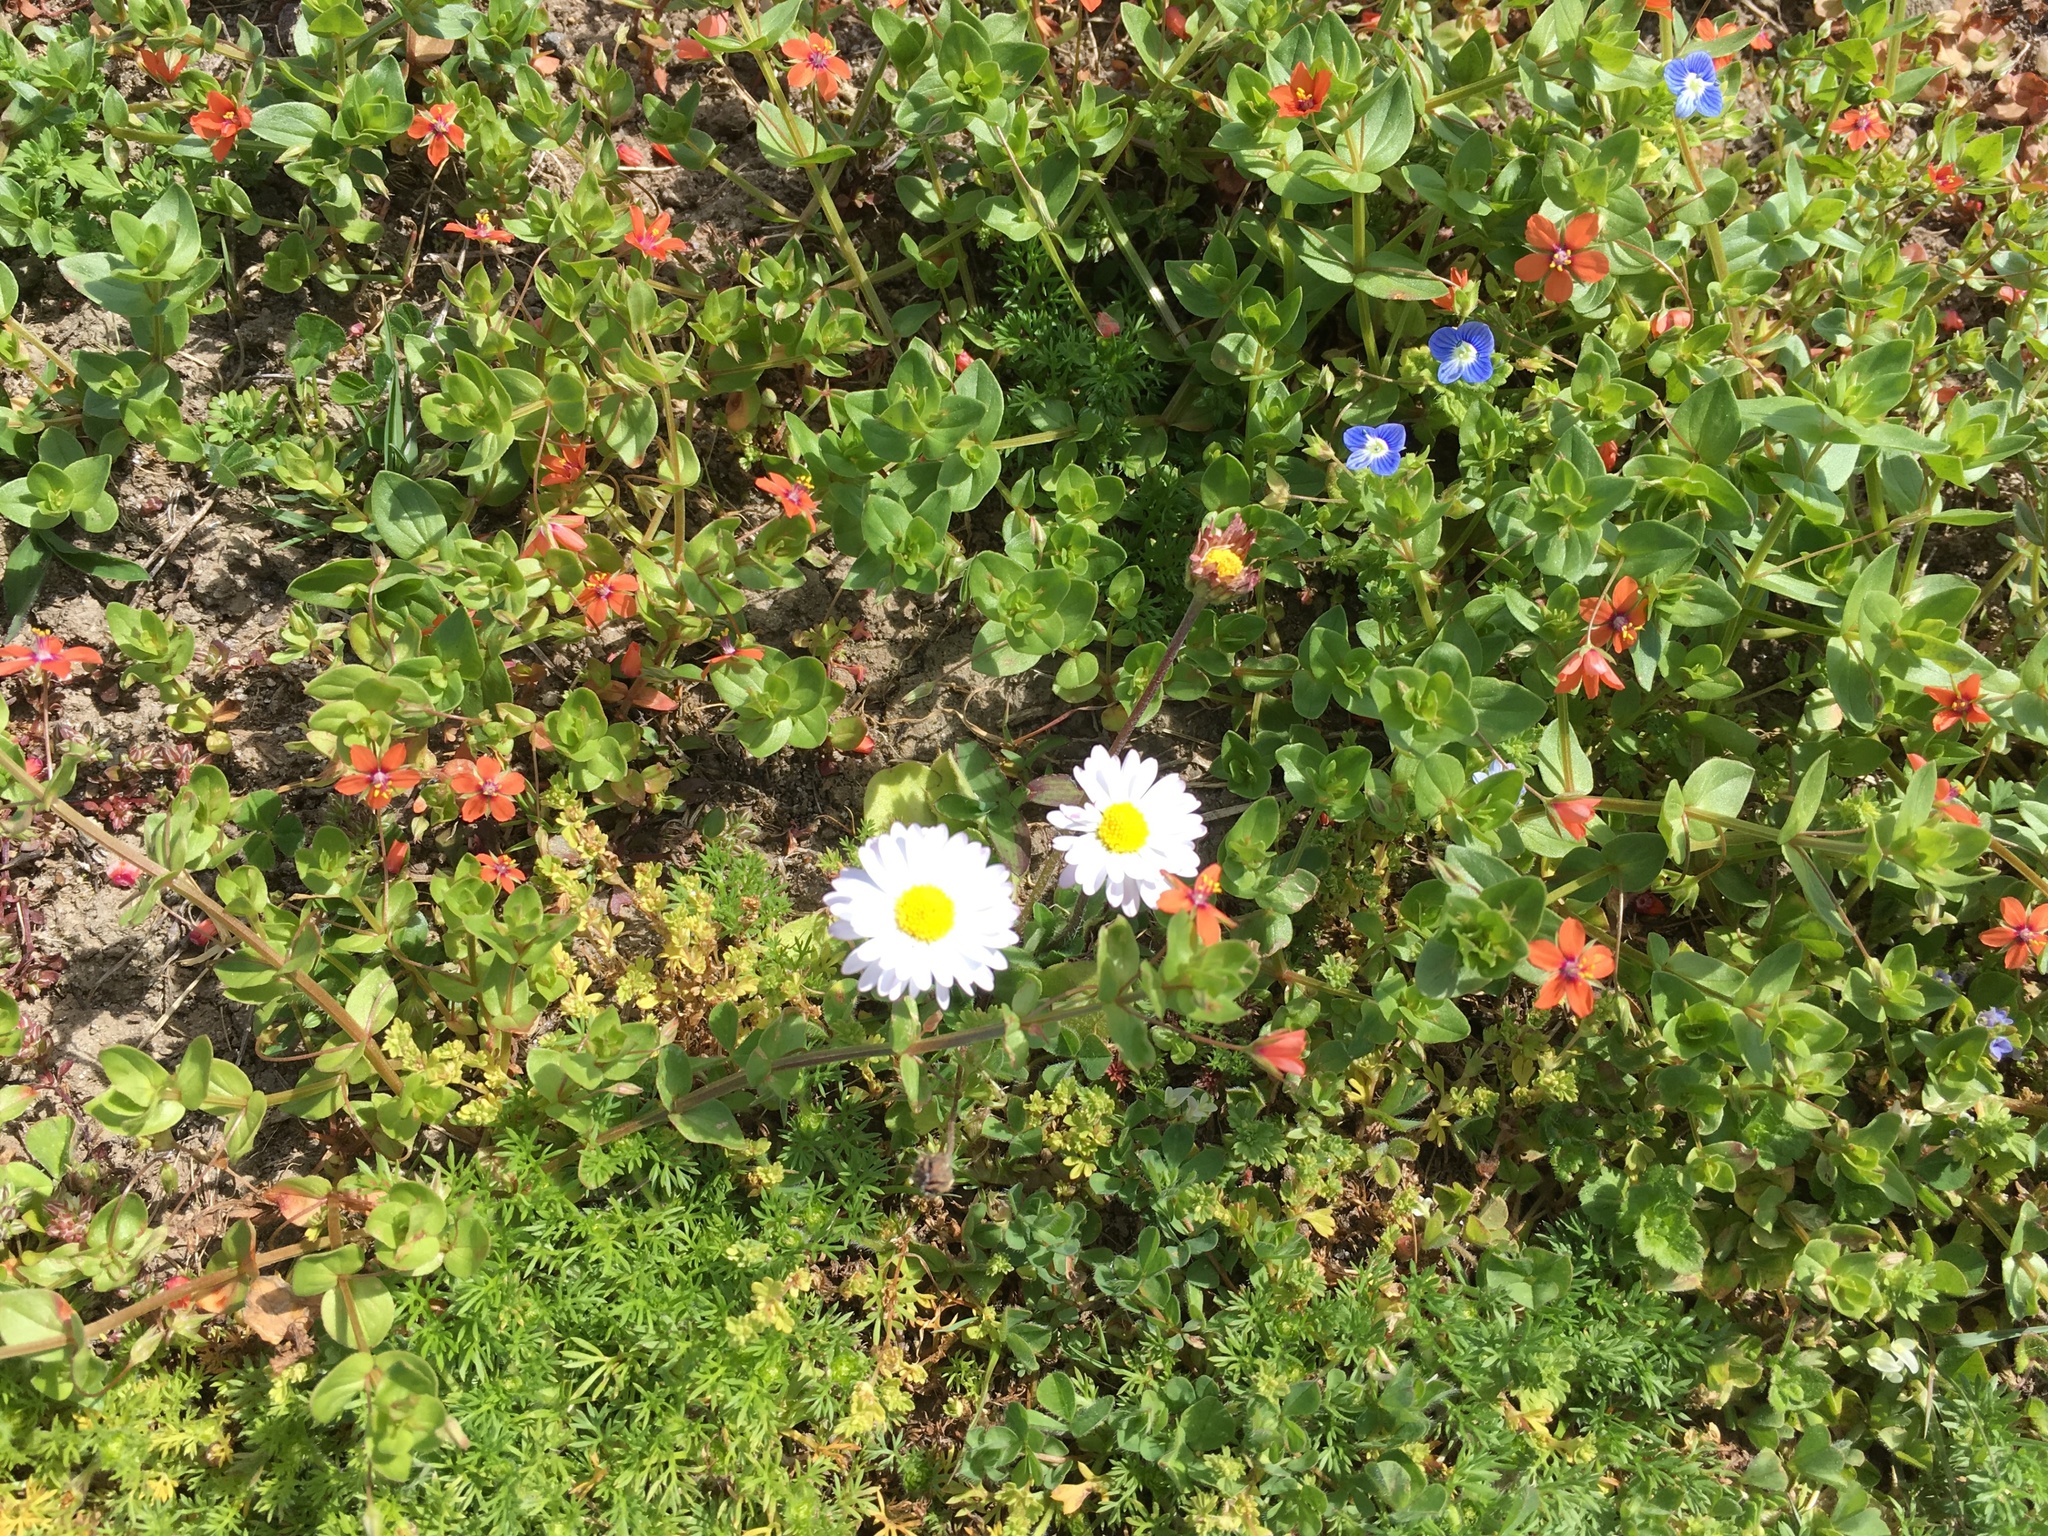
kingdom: Plantae
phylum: Tracheophyta
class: Magnoliopsida
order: Ericales
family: Primulaceae
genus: Lysimachia
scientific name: Lysimachia arvensis
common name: Scarlet pimpernel
